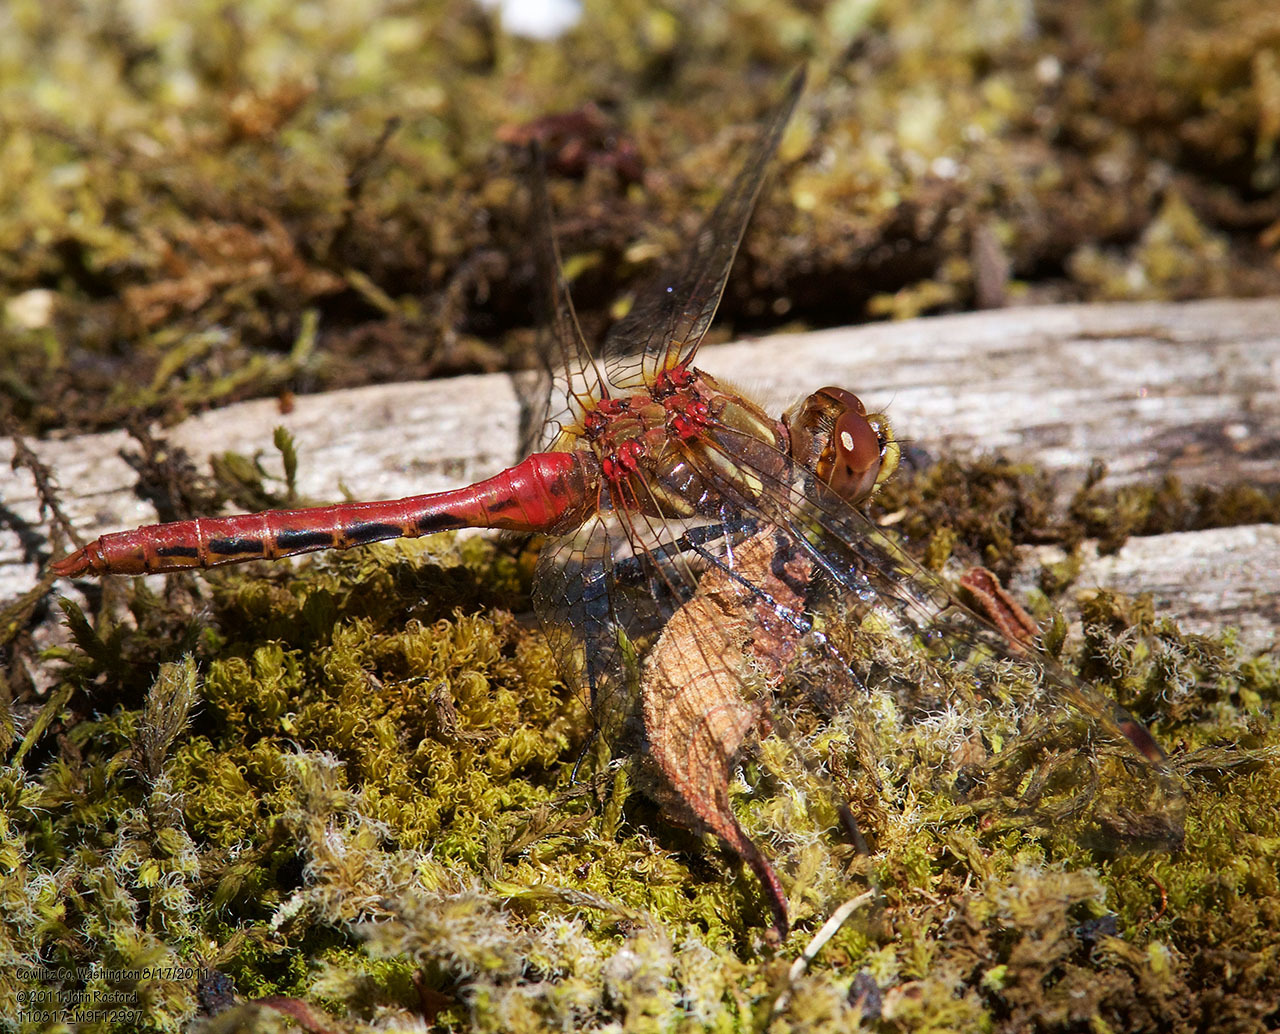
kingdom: Animalia
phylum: Arthropoda
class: Insecta
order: Odonata
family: Libellulidae
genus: Sympetrum
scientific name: Sympetrum pallipes
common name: Striped meadowhawk
